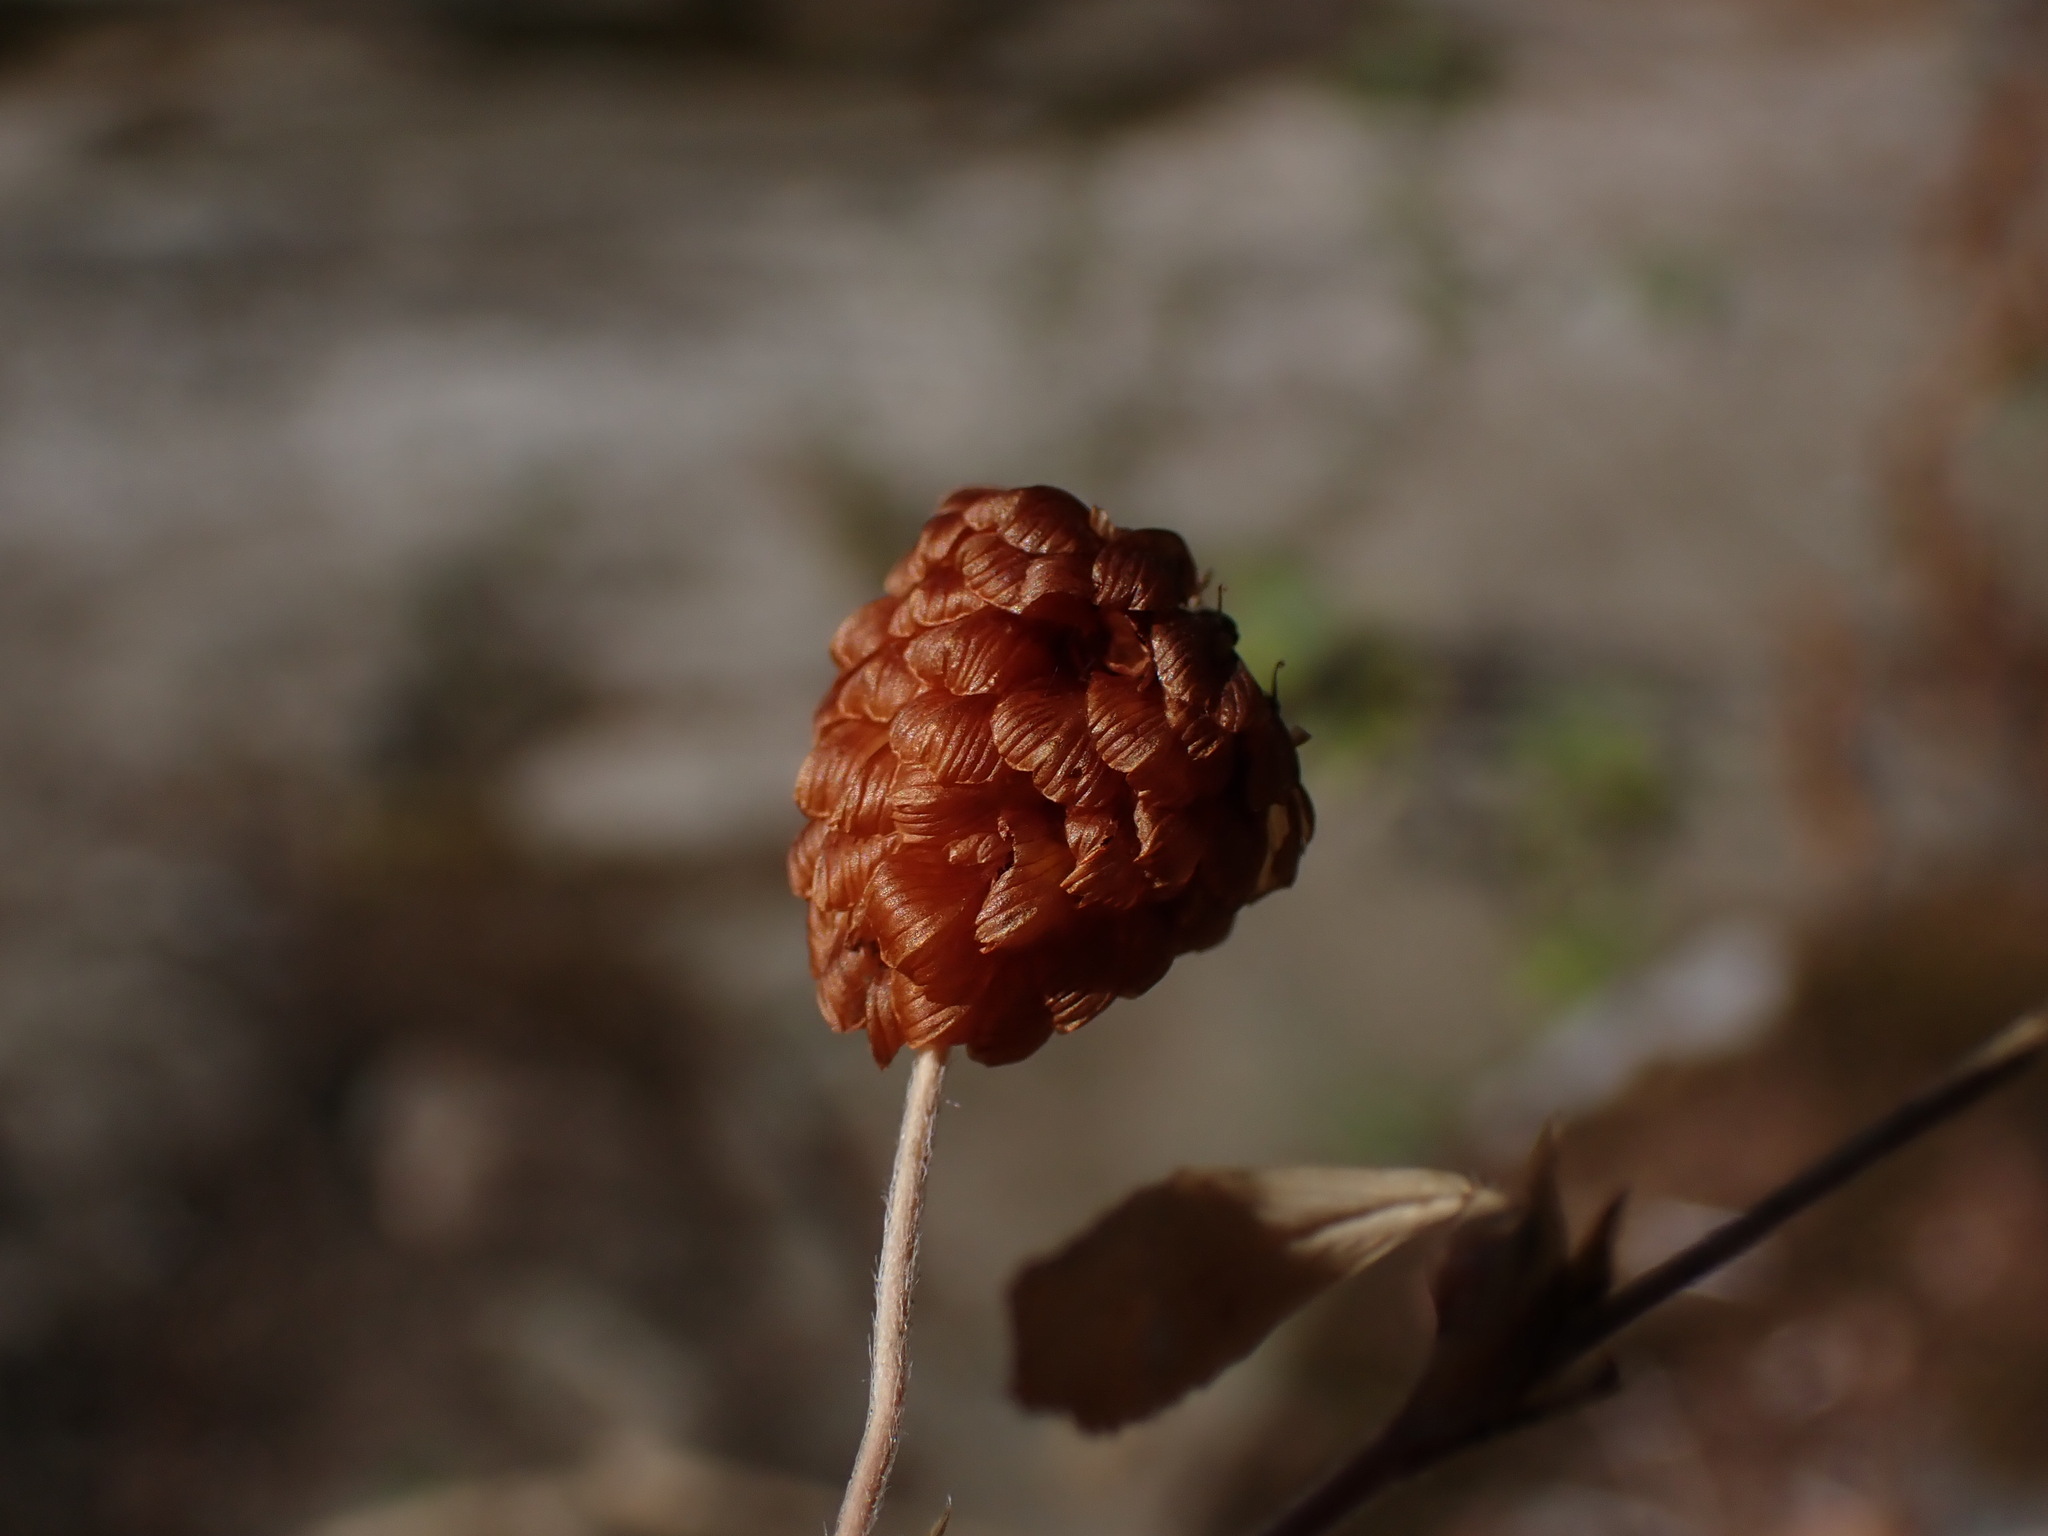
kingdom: Plantae
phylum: Tracheophyta
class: Magnoliopsida
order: Fabales
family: Fabaceae
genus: Trifolium
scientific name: Trifolium aureum
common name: Golden clover
